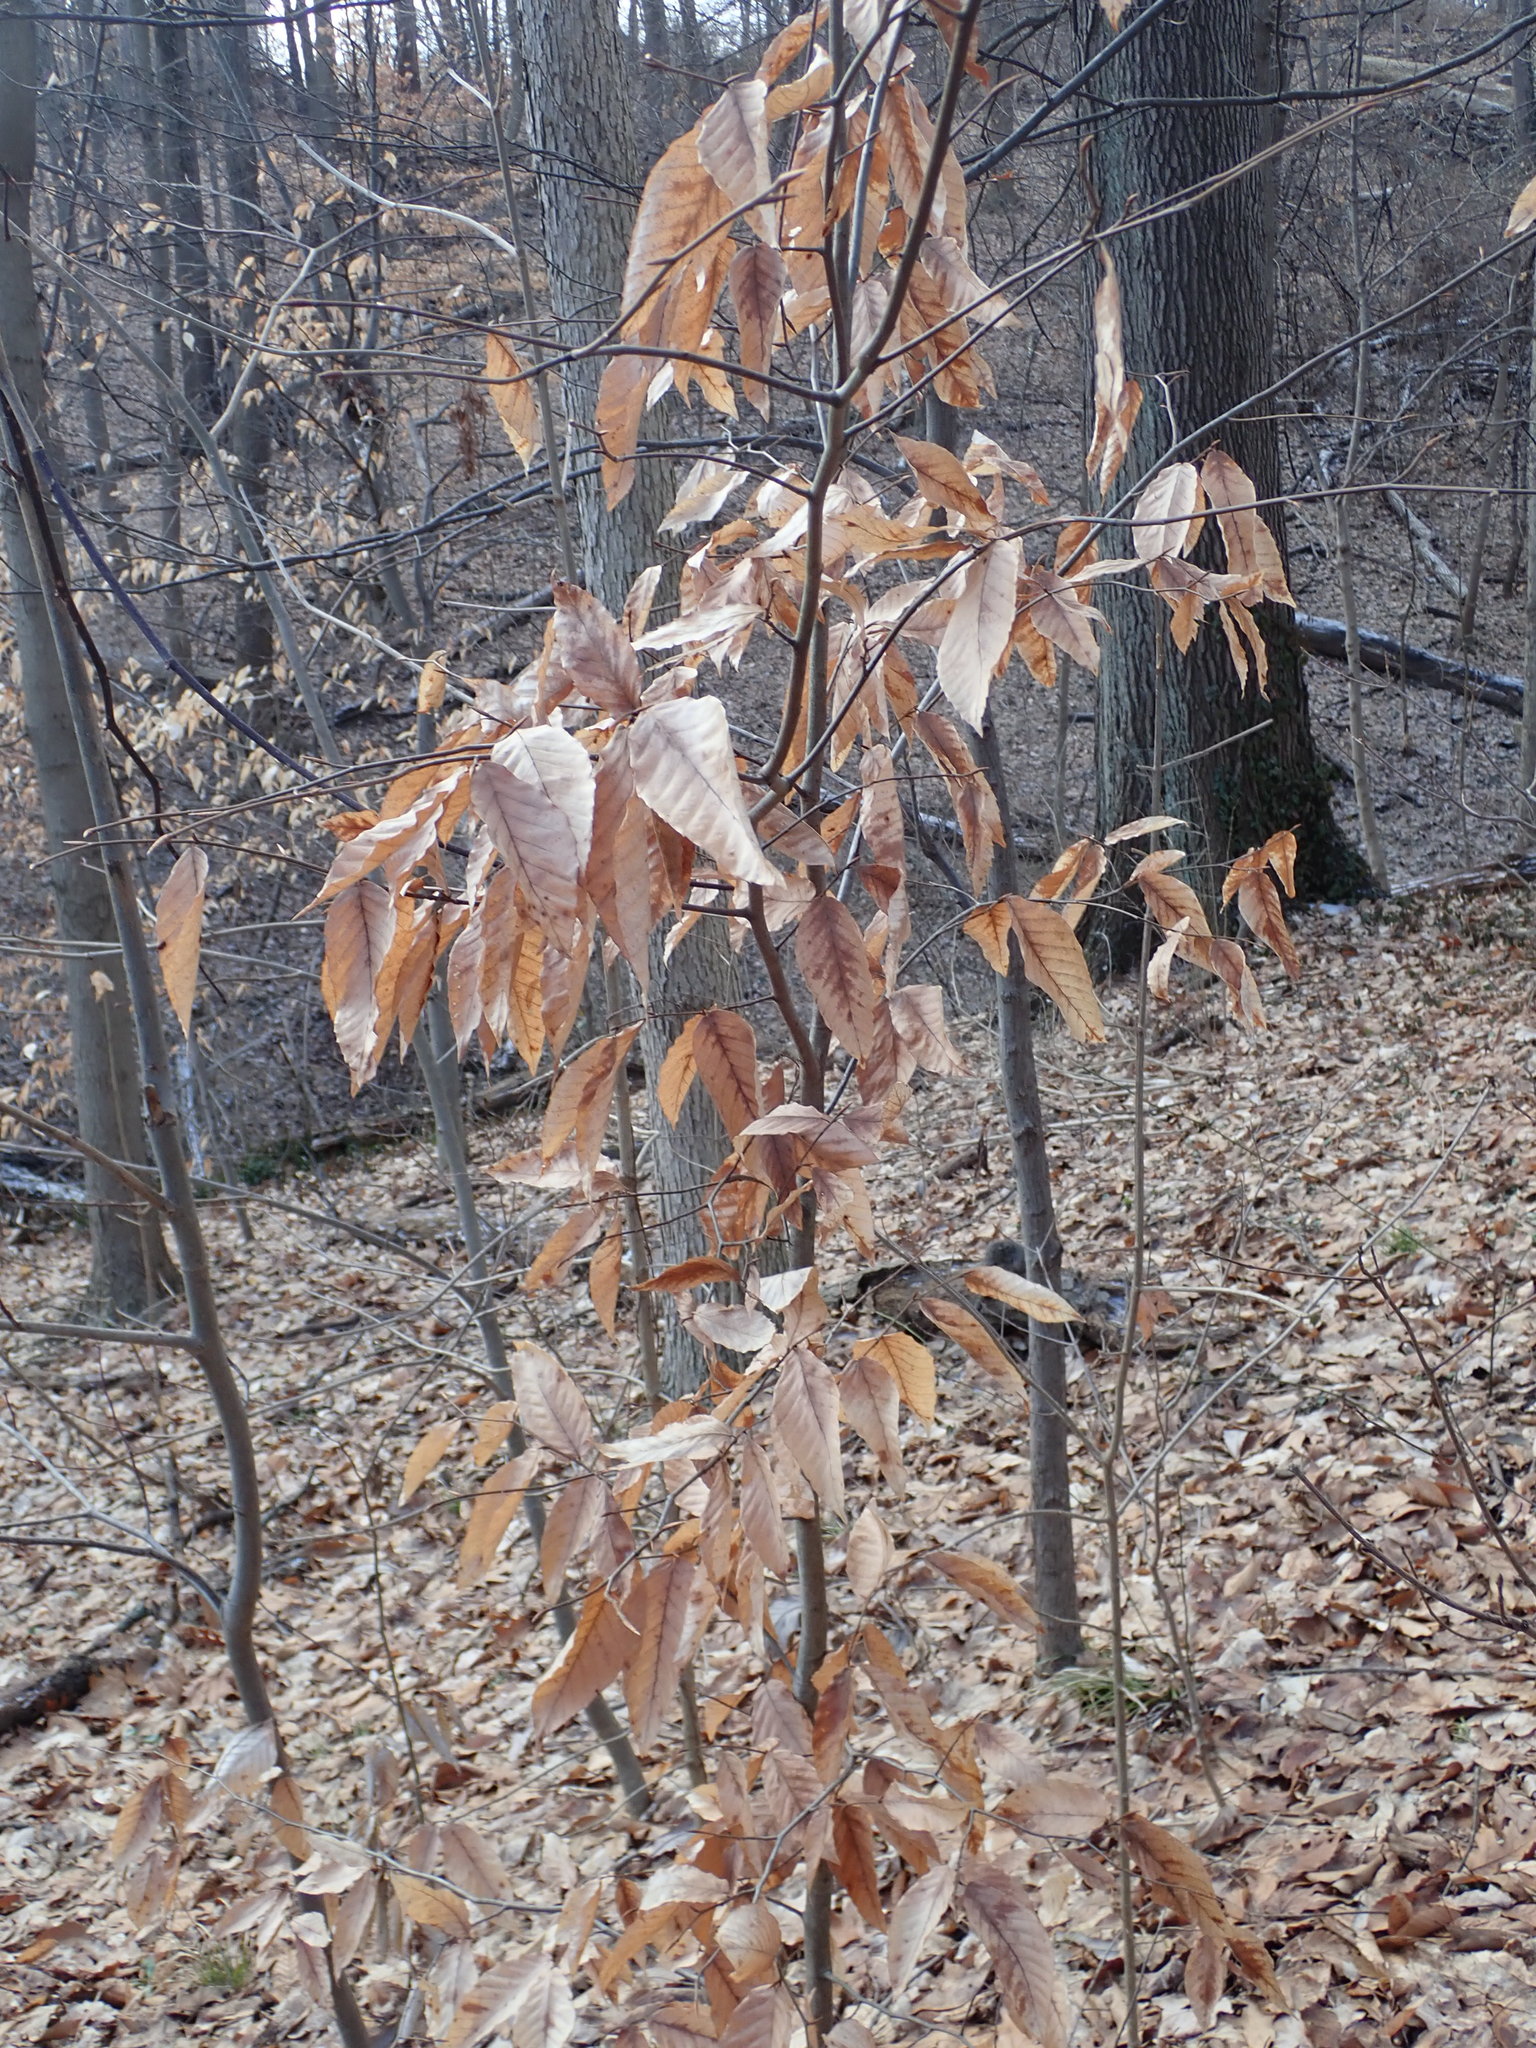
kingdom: Plantae
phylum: Tracheophyta
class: Magnoliopsida
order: Fagales
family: Fagaceae
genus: Fagus
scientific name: Fagus grandifolia
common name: American beech
